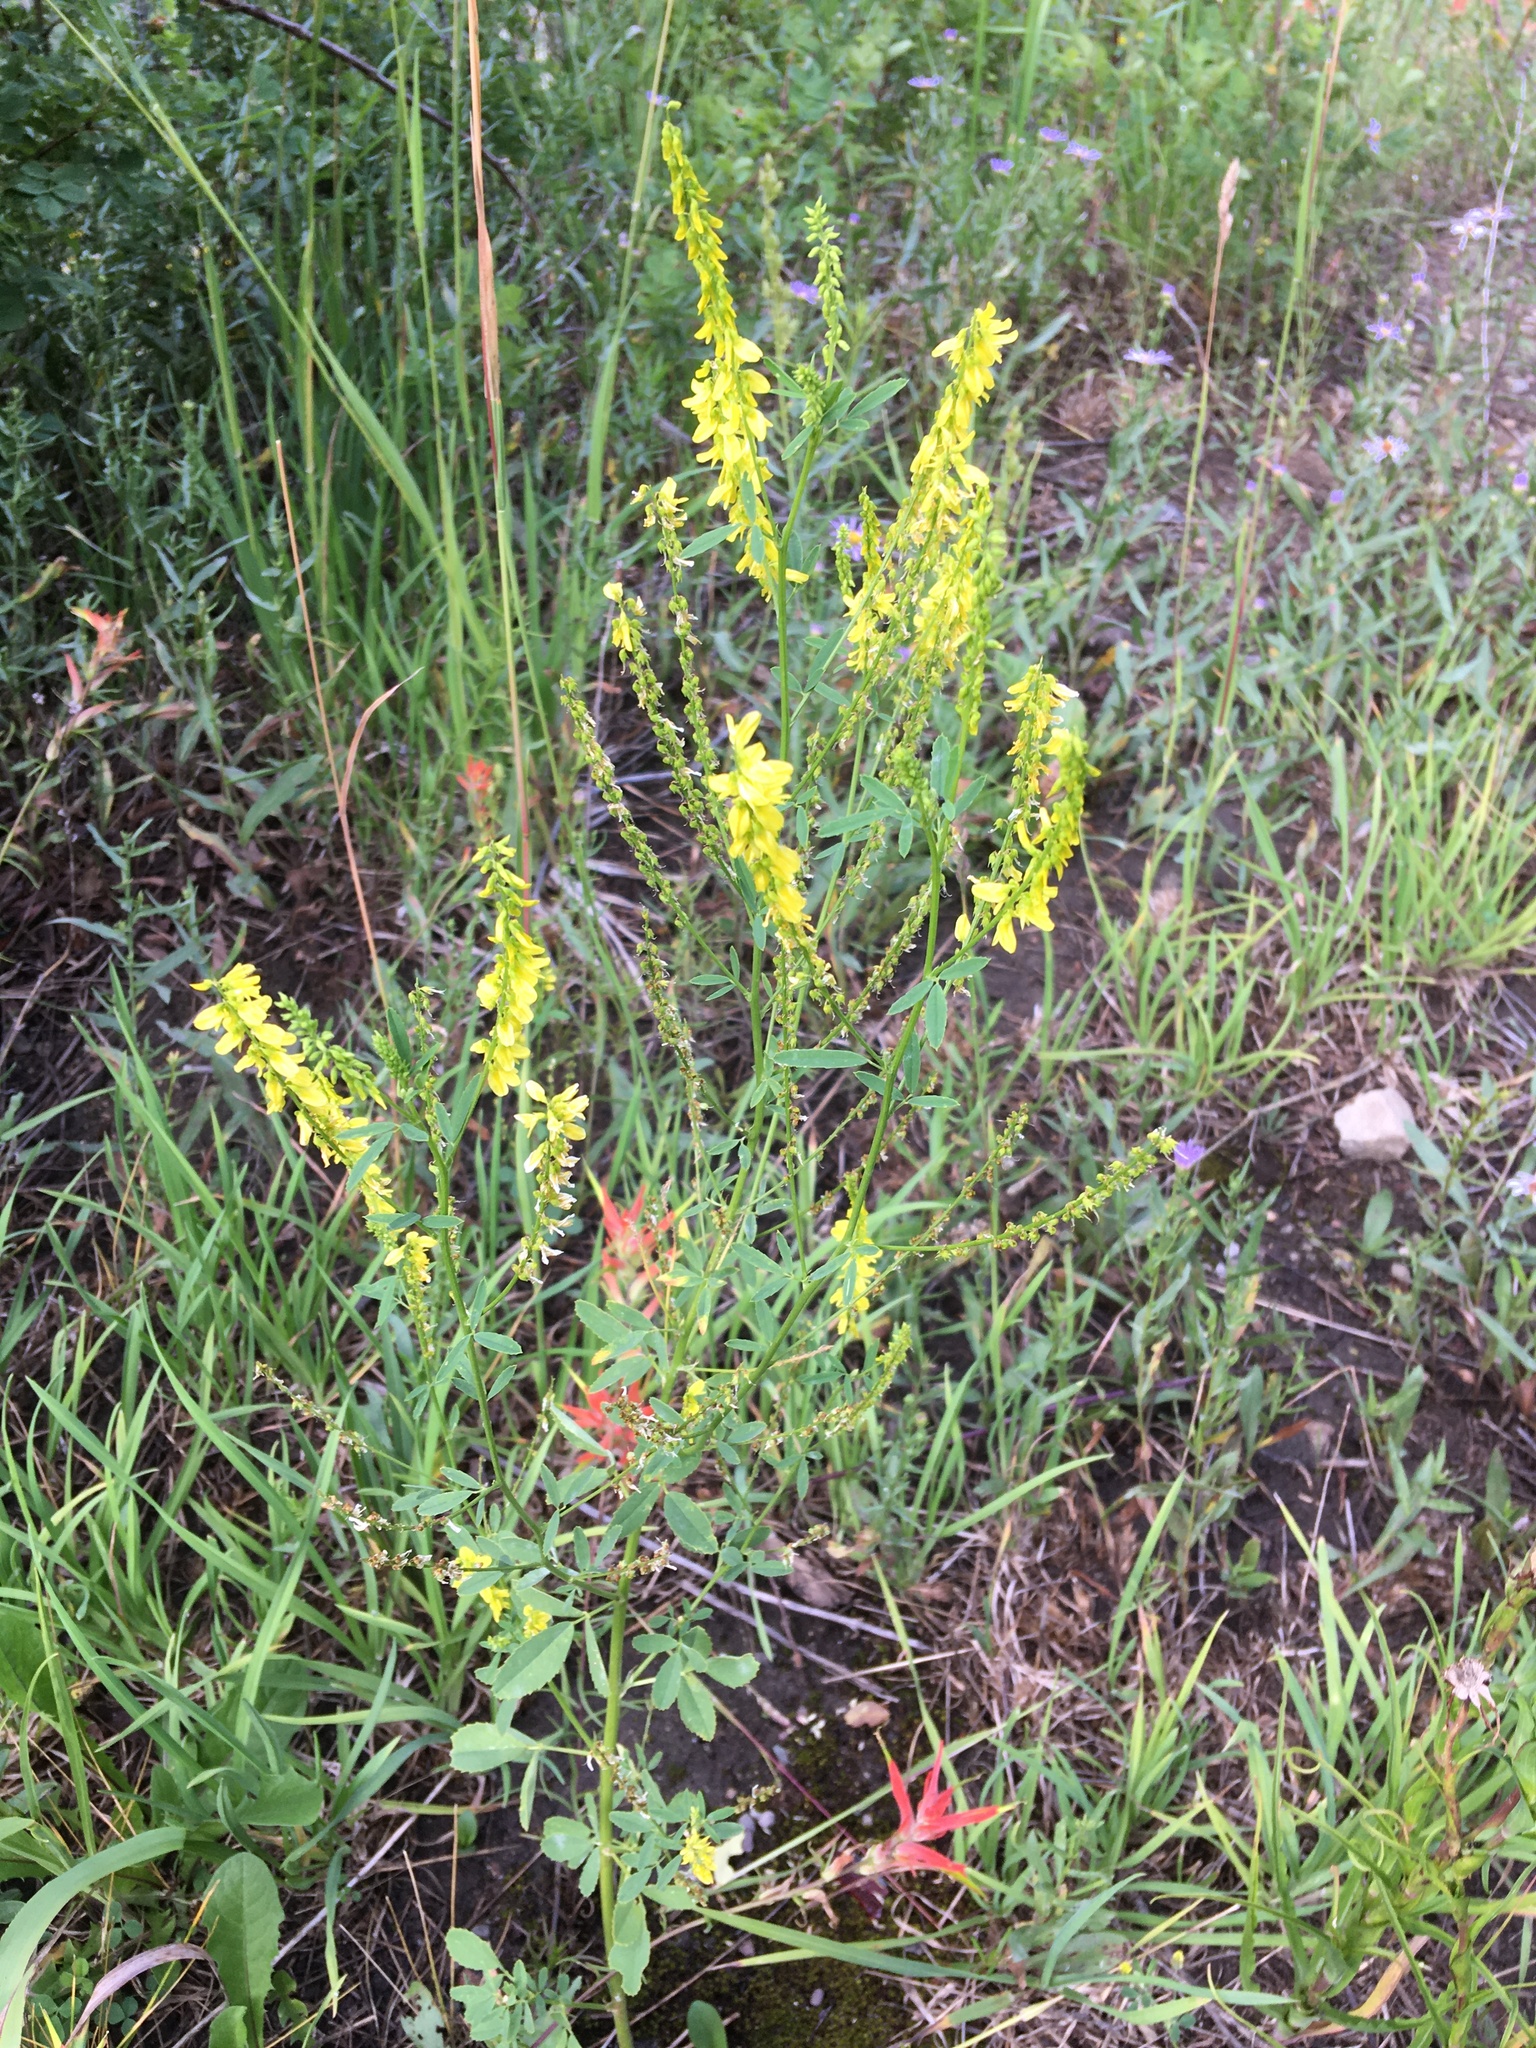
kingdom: Plantae
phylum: Tracheophyta
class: Magnoliopsida
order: Fabales
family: Fabaceae
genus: Melilotus
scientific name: Melilotus officinalis
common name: Sweetclover
